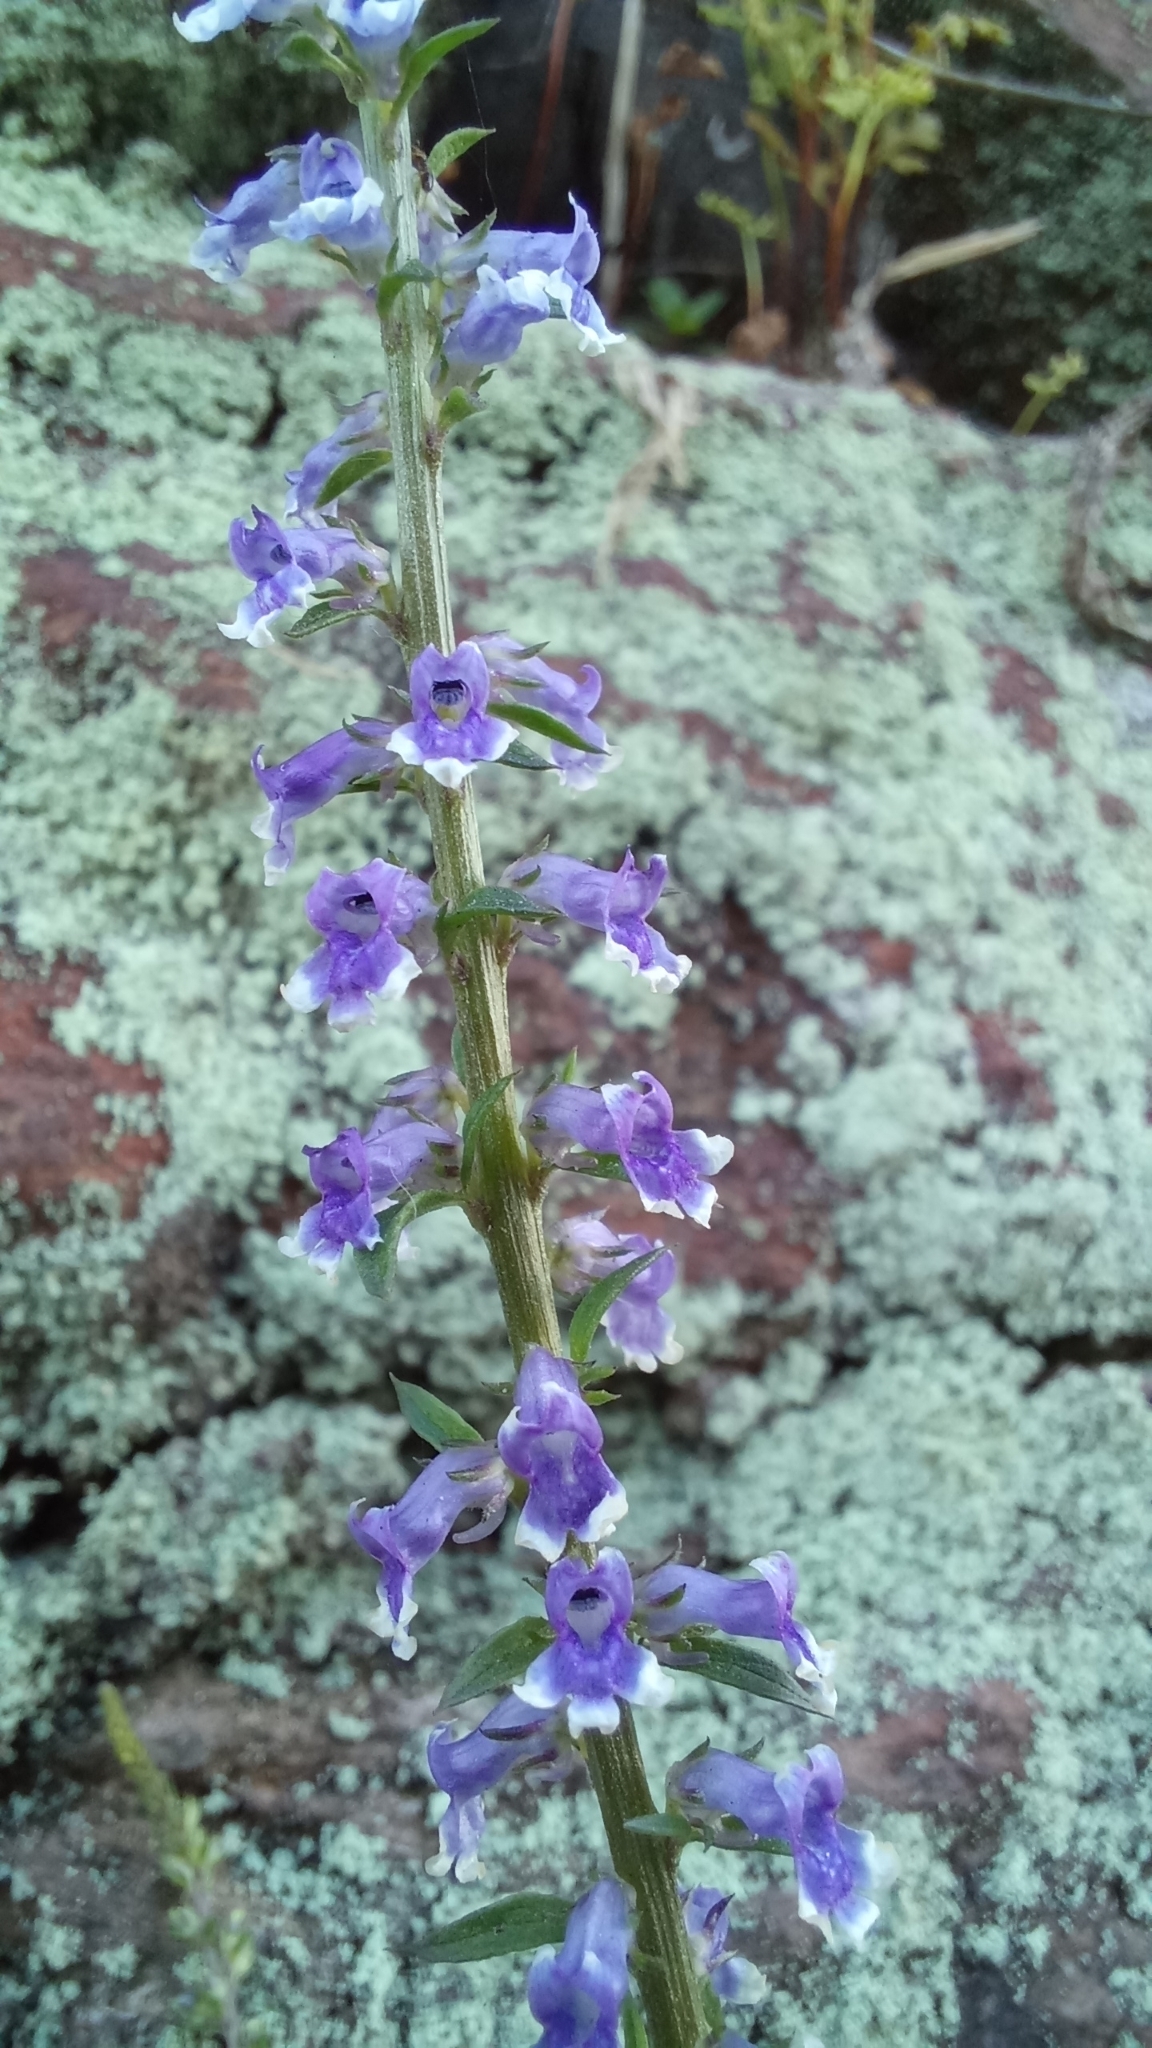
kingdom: Plantae
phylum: Tracheophyta
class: Magnoliopsida
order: Lamiales
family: Plantaginaceae
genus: Anarrhinum
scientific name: Anarrhinum bellidifolium
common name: Daisy-leaved toadflax
